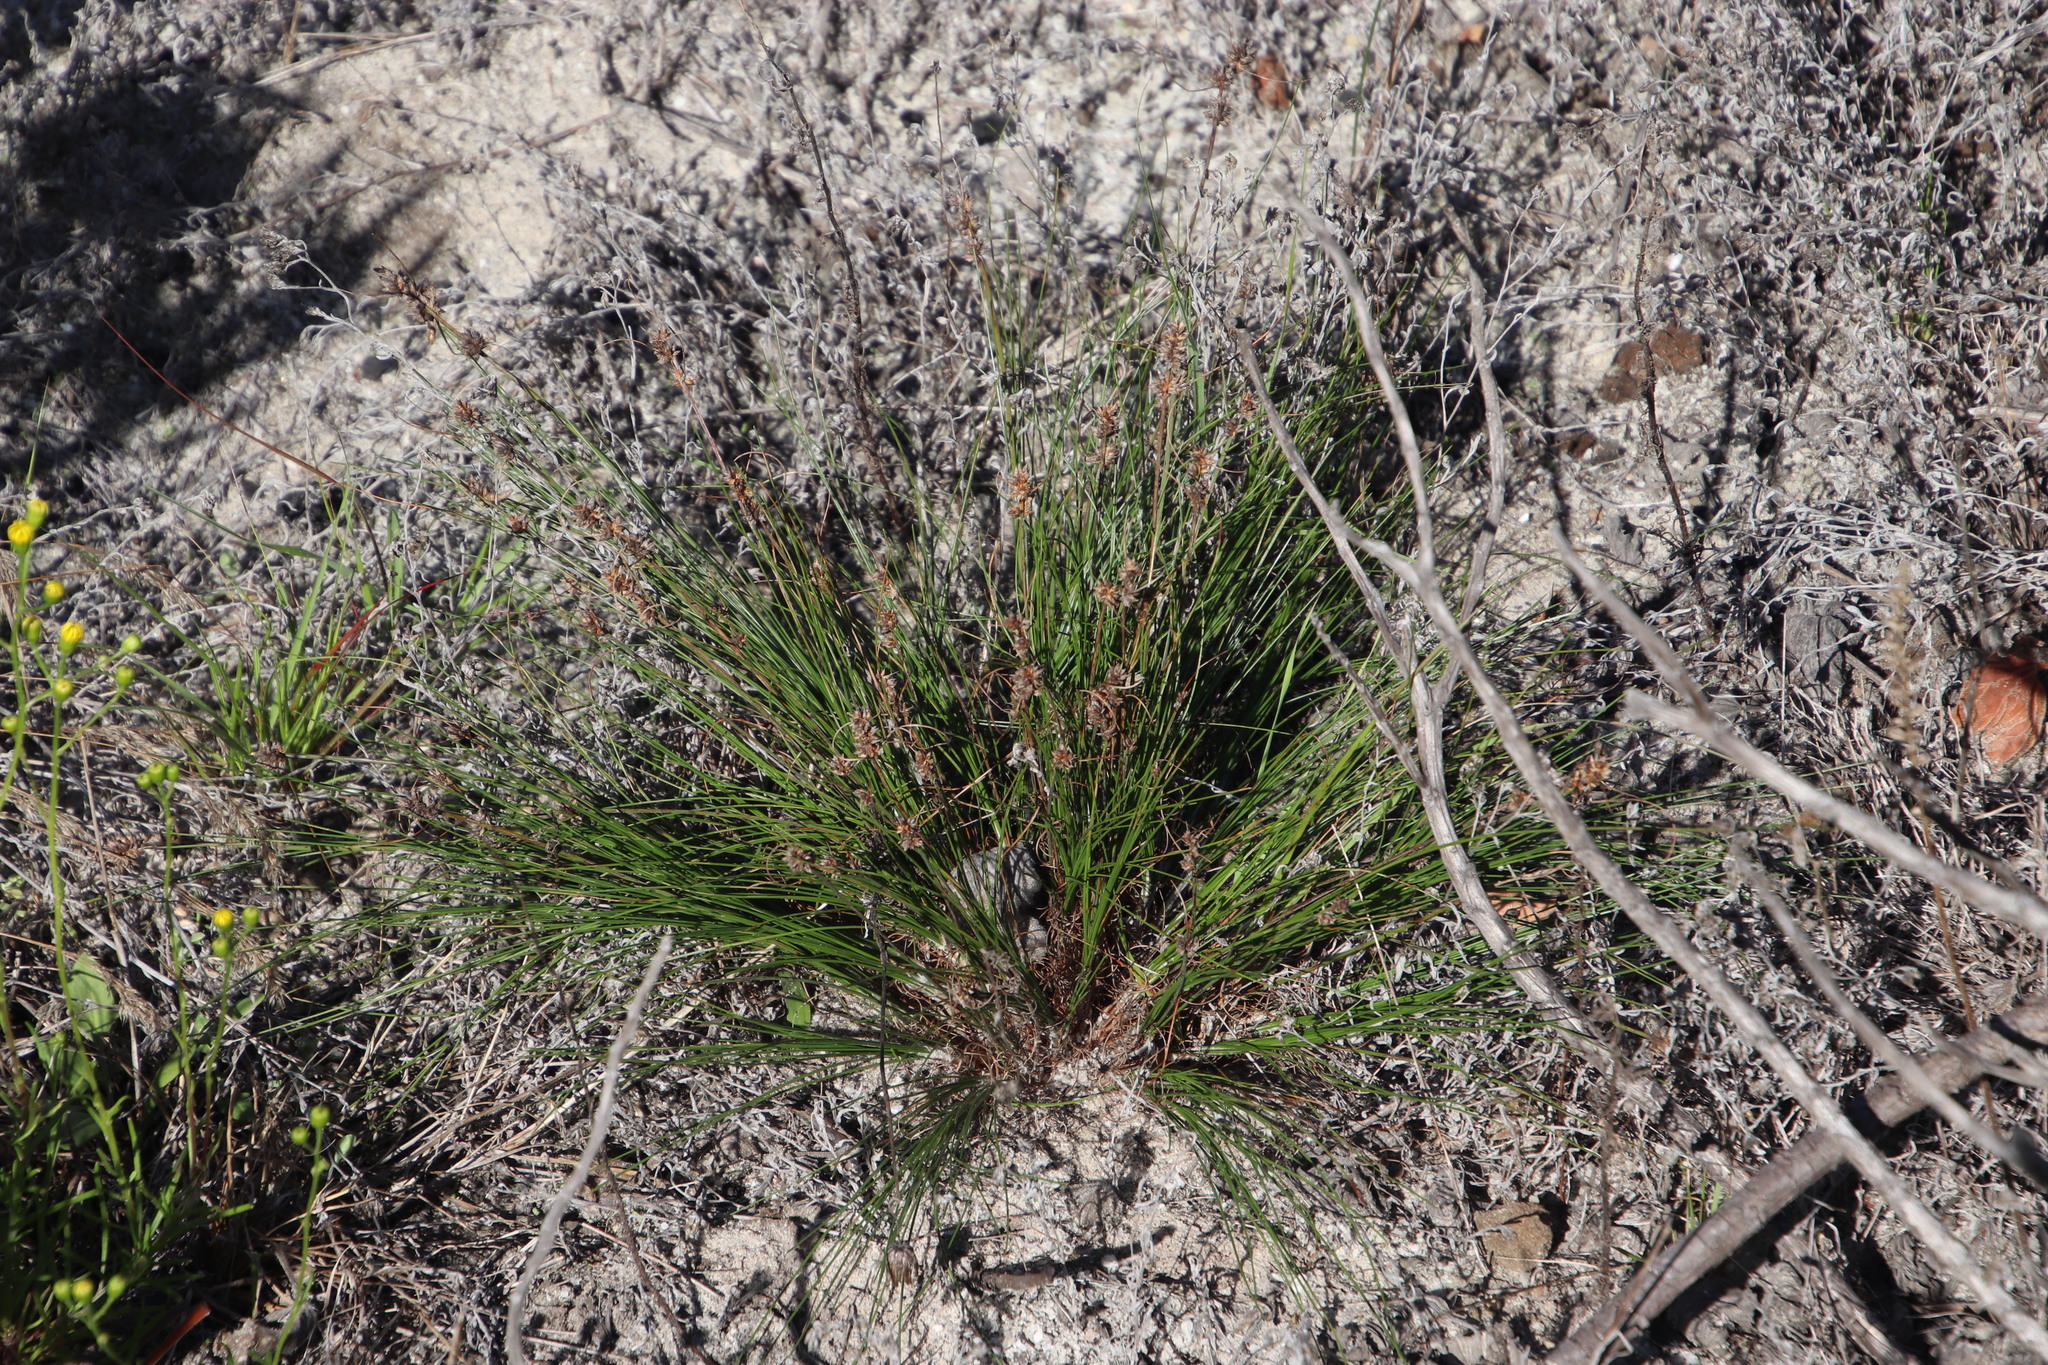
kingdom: Plantae
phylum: Tracheophyta
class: Liliopsida
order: Poales
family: Cyperaceae
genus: Ficinia
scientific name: Ficinia bulbosa
